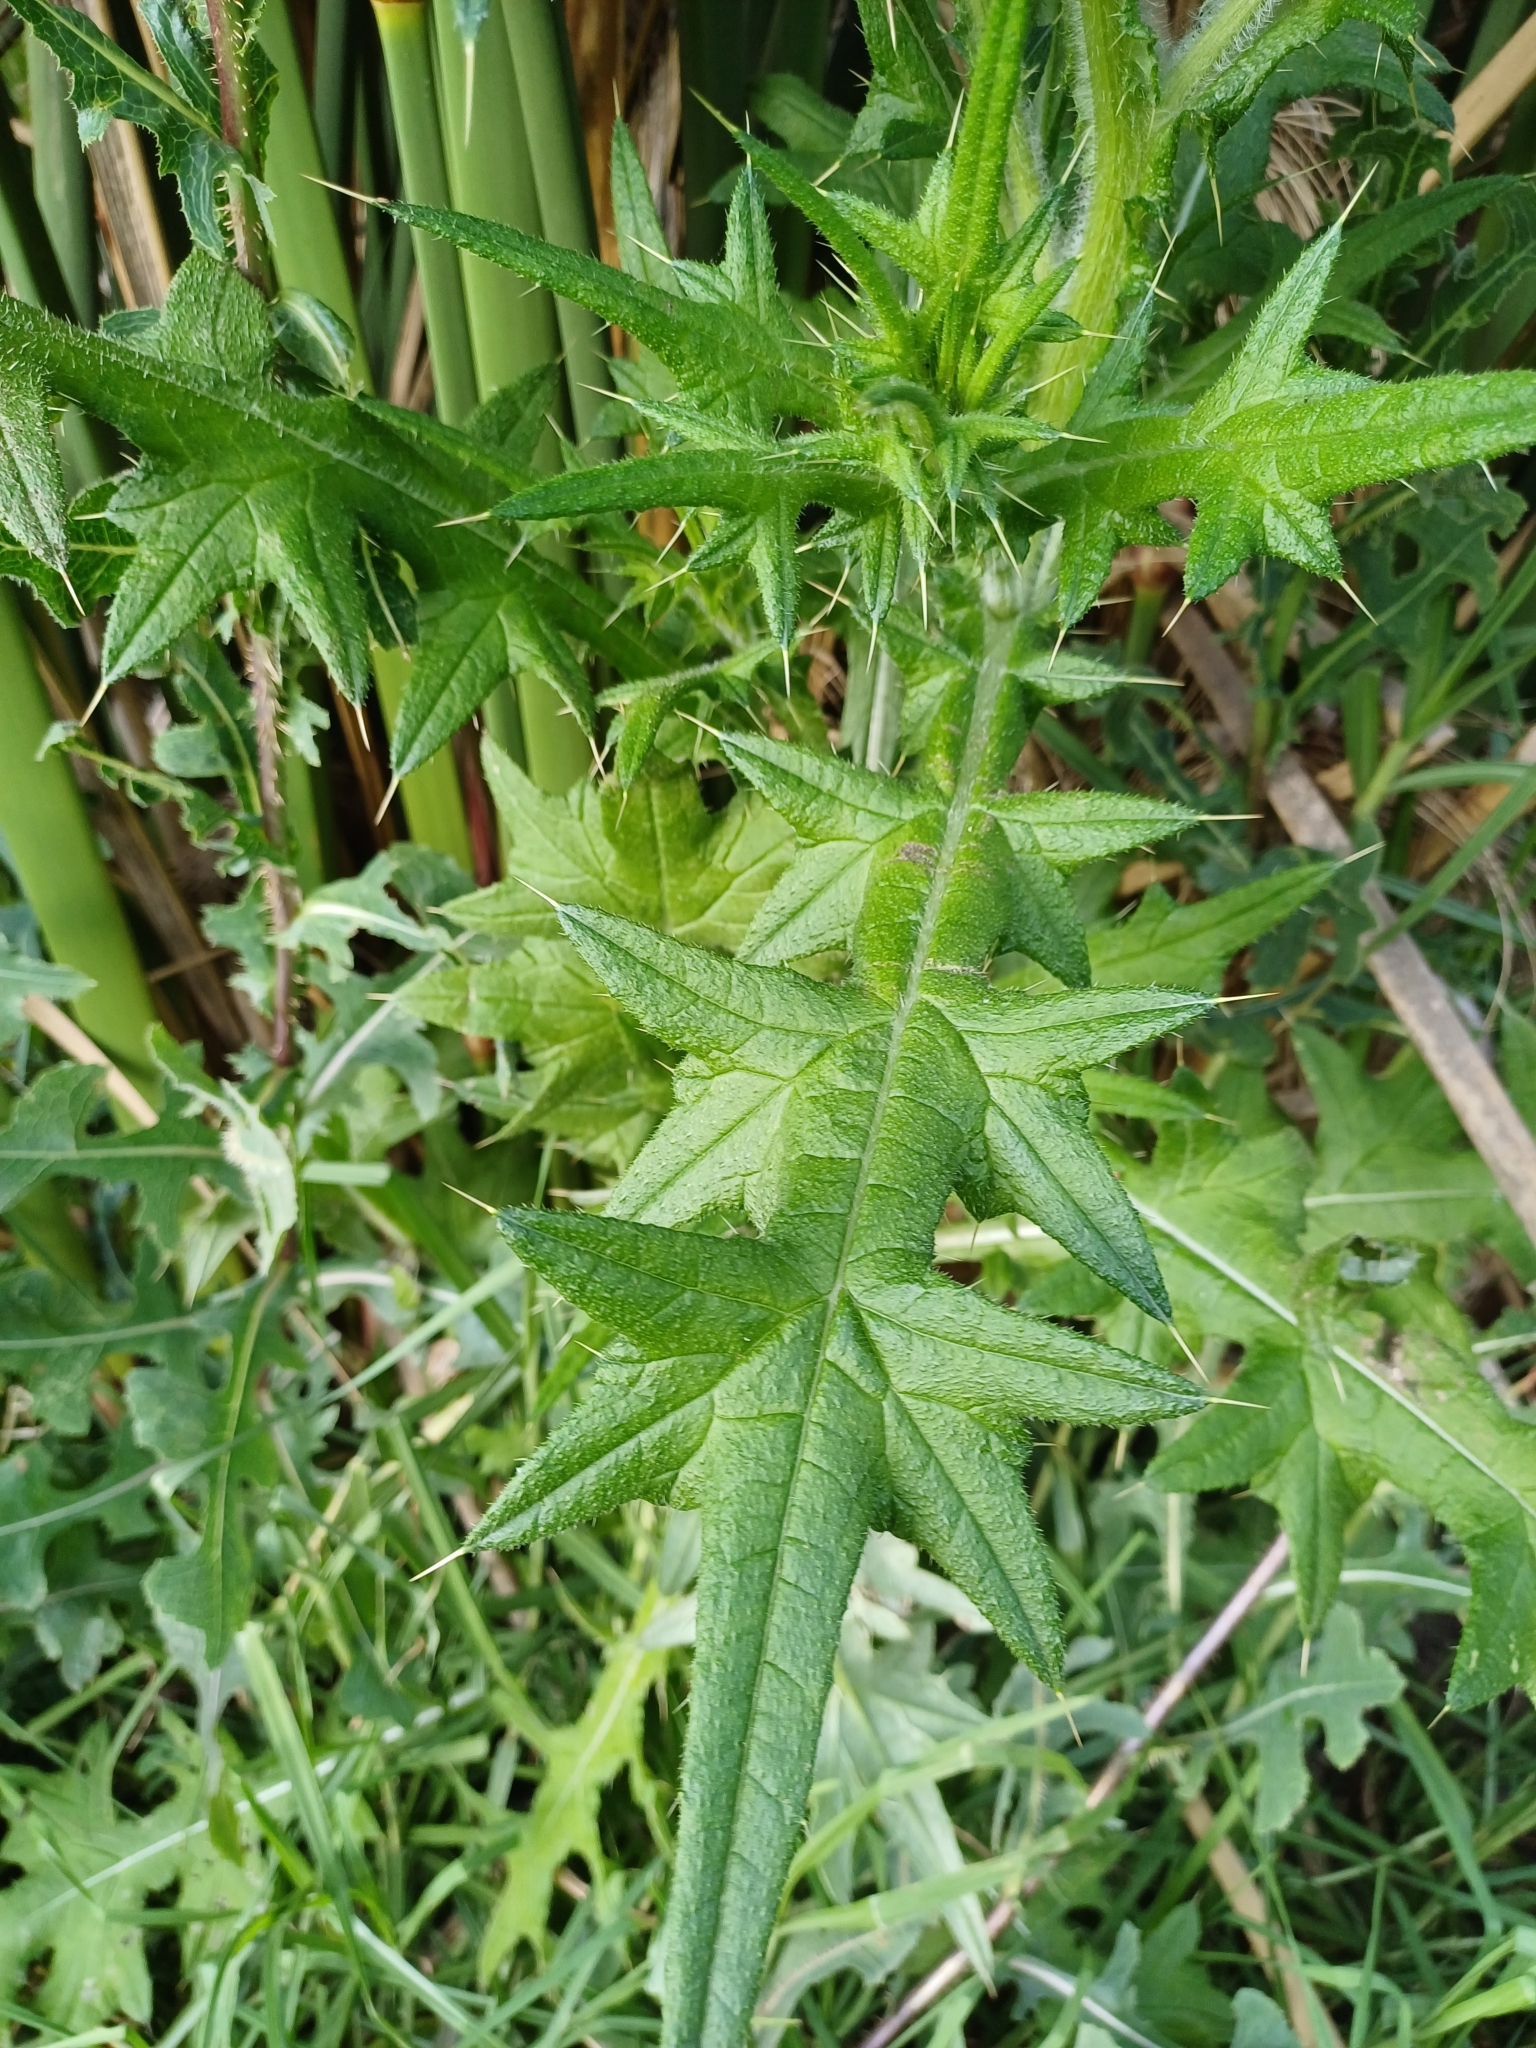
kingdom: Plantae
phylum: Tracheophyta
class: Magnoliopsida
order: Asterales
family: Asteraceae
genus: Cirsium
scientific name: Cirsium vulgare
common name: Bull thistle
